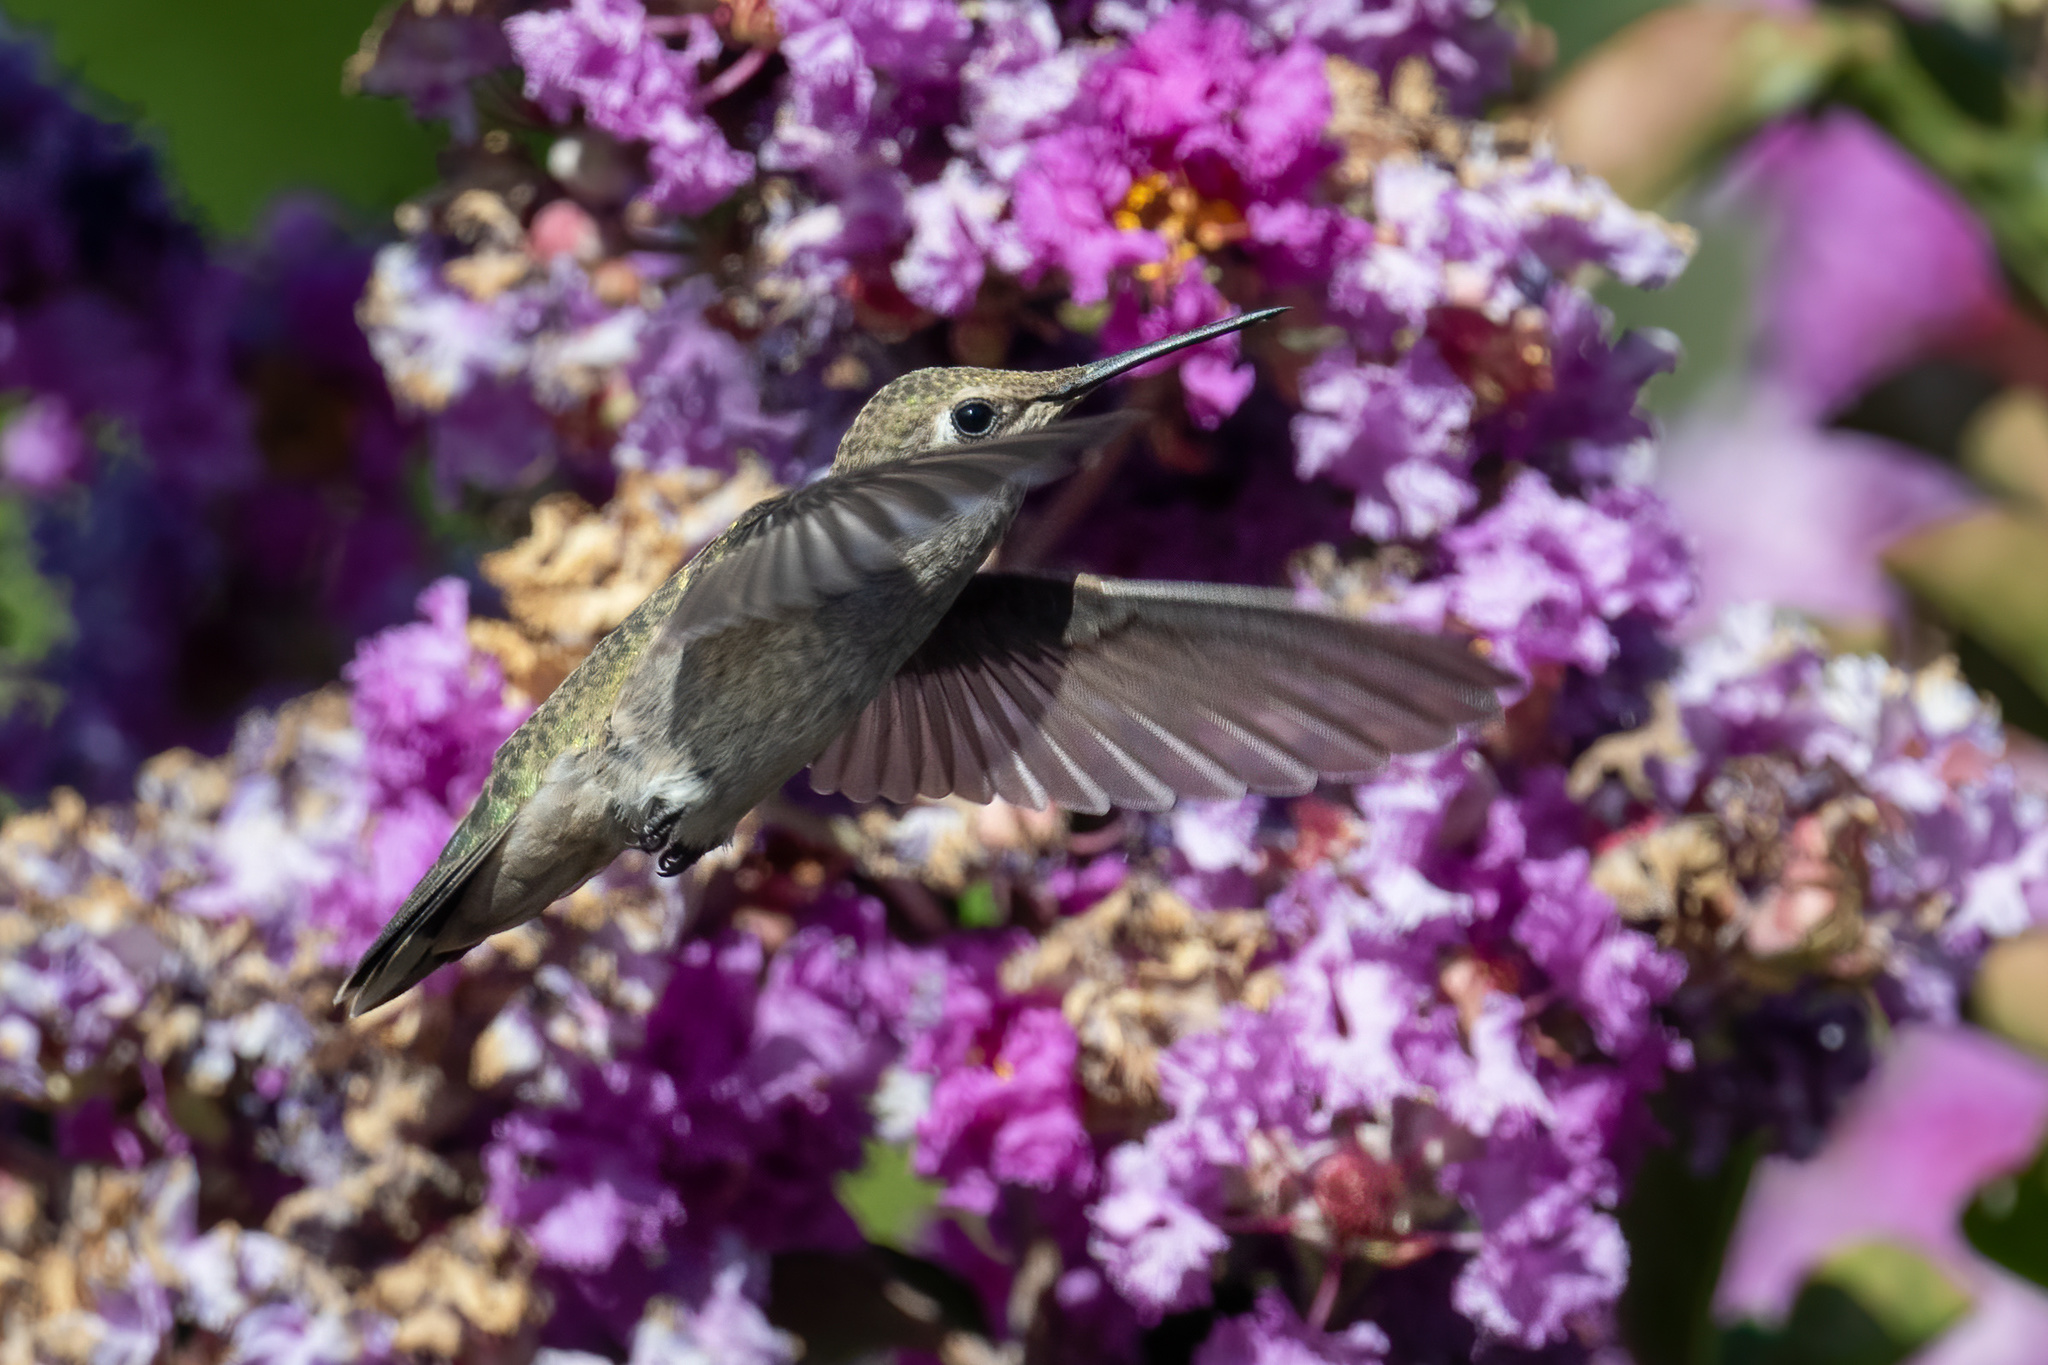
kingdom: Animalia
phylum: Chordata
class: Aves
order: Apodiformes
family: Trochilidae
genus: Calypte
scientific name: Calypte anna
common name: Anna's hummingbird
